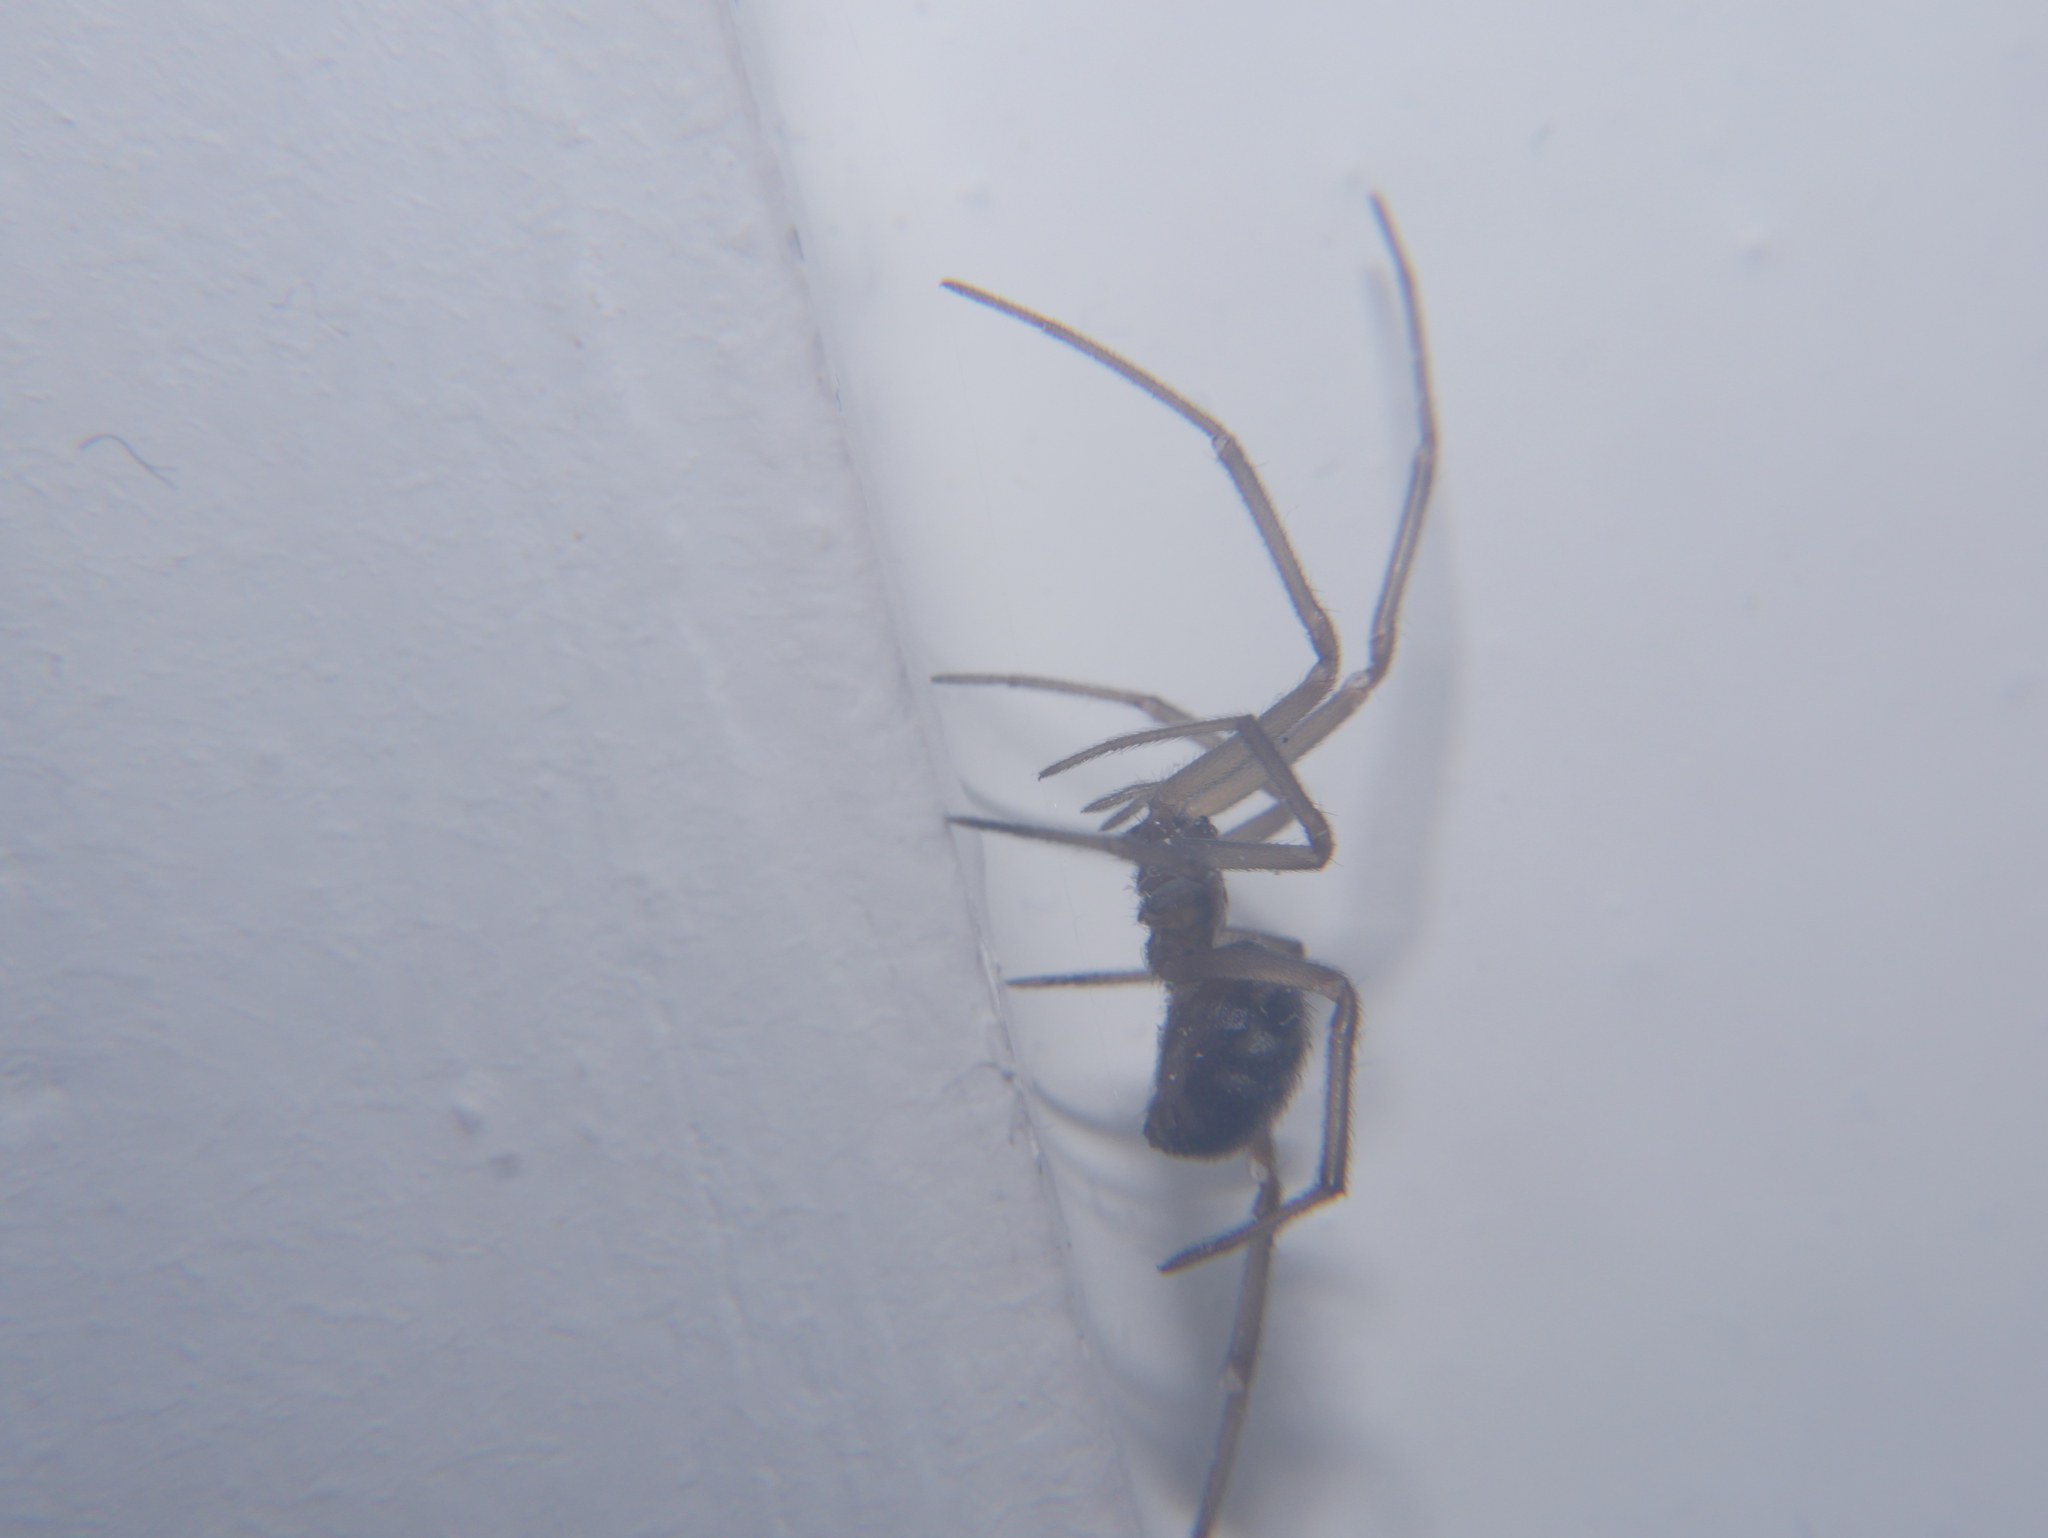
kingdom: Animalia
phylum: Arthropoda
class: Arachnida
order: Araneae
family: Theridiidae
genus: Steatoda
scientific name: Steatoda grossa
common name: False black widow
